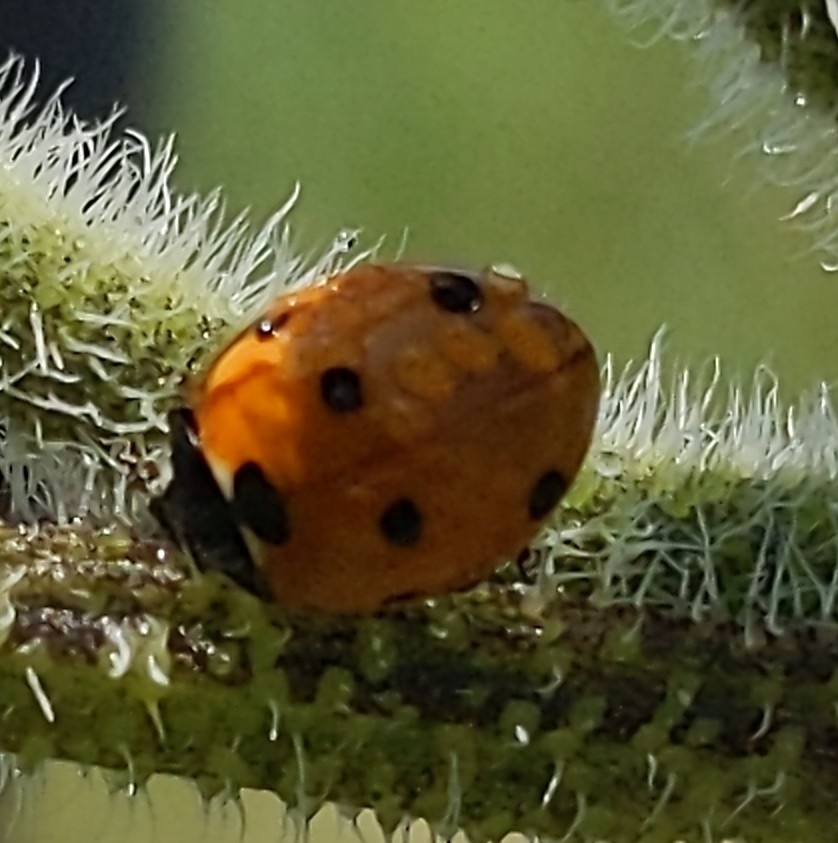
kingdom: Animalia
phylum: Arthropoda
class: Insecta
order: Coleoptera
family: Coccinellidae
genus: Coccinella
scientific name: Coccinella septempunctata
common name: Sevenspotted lady beetle
